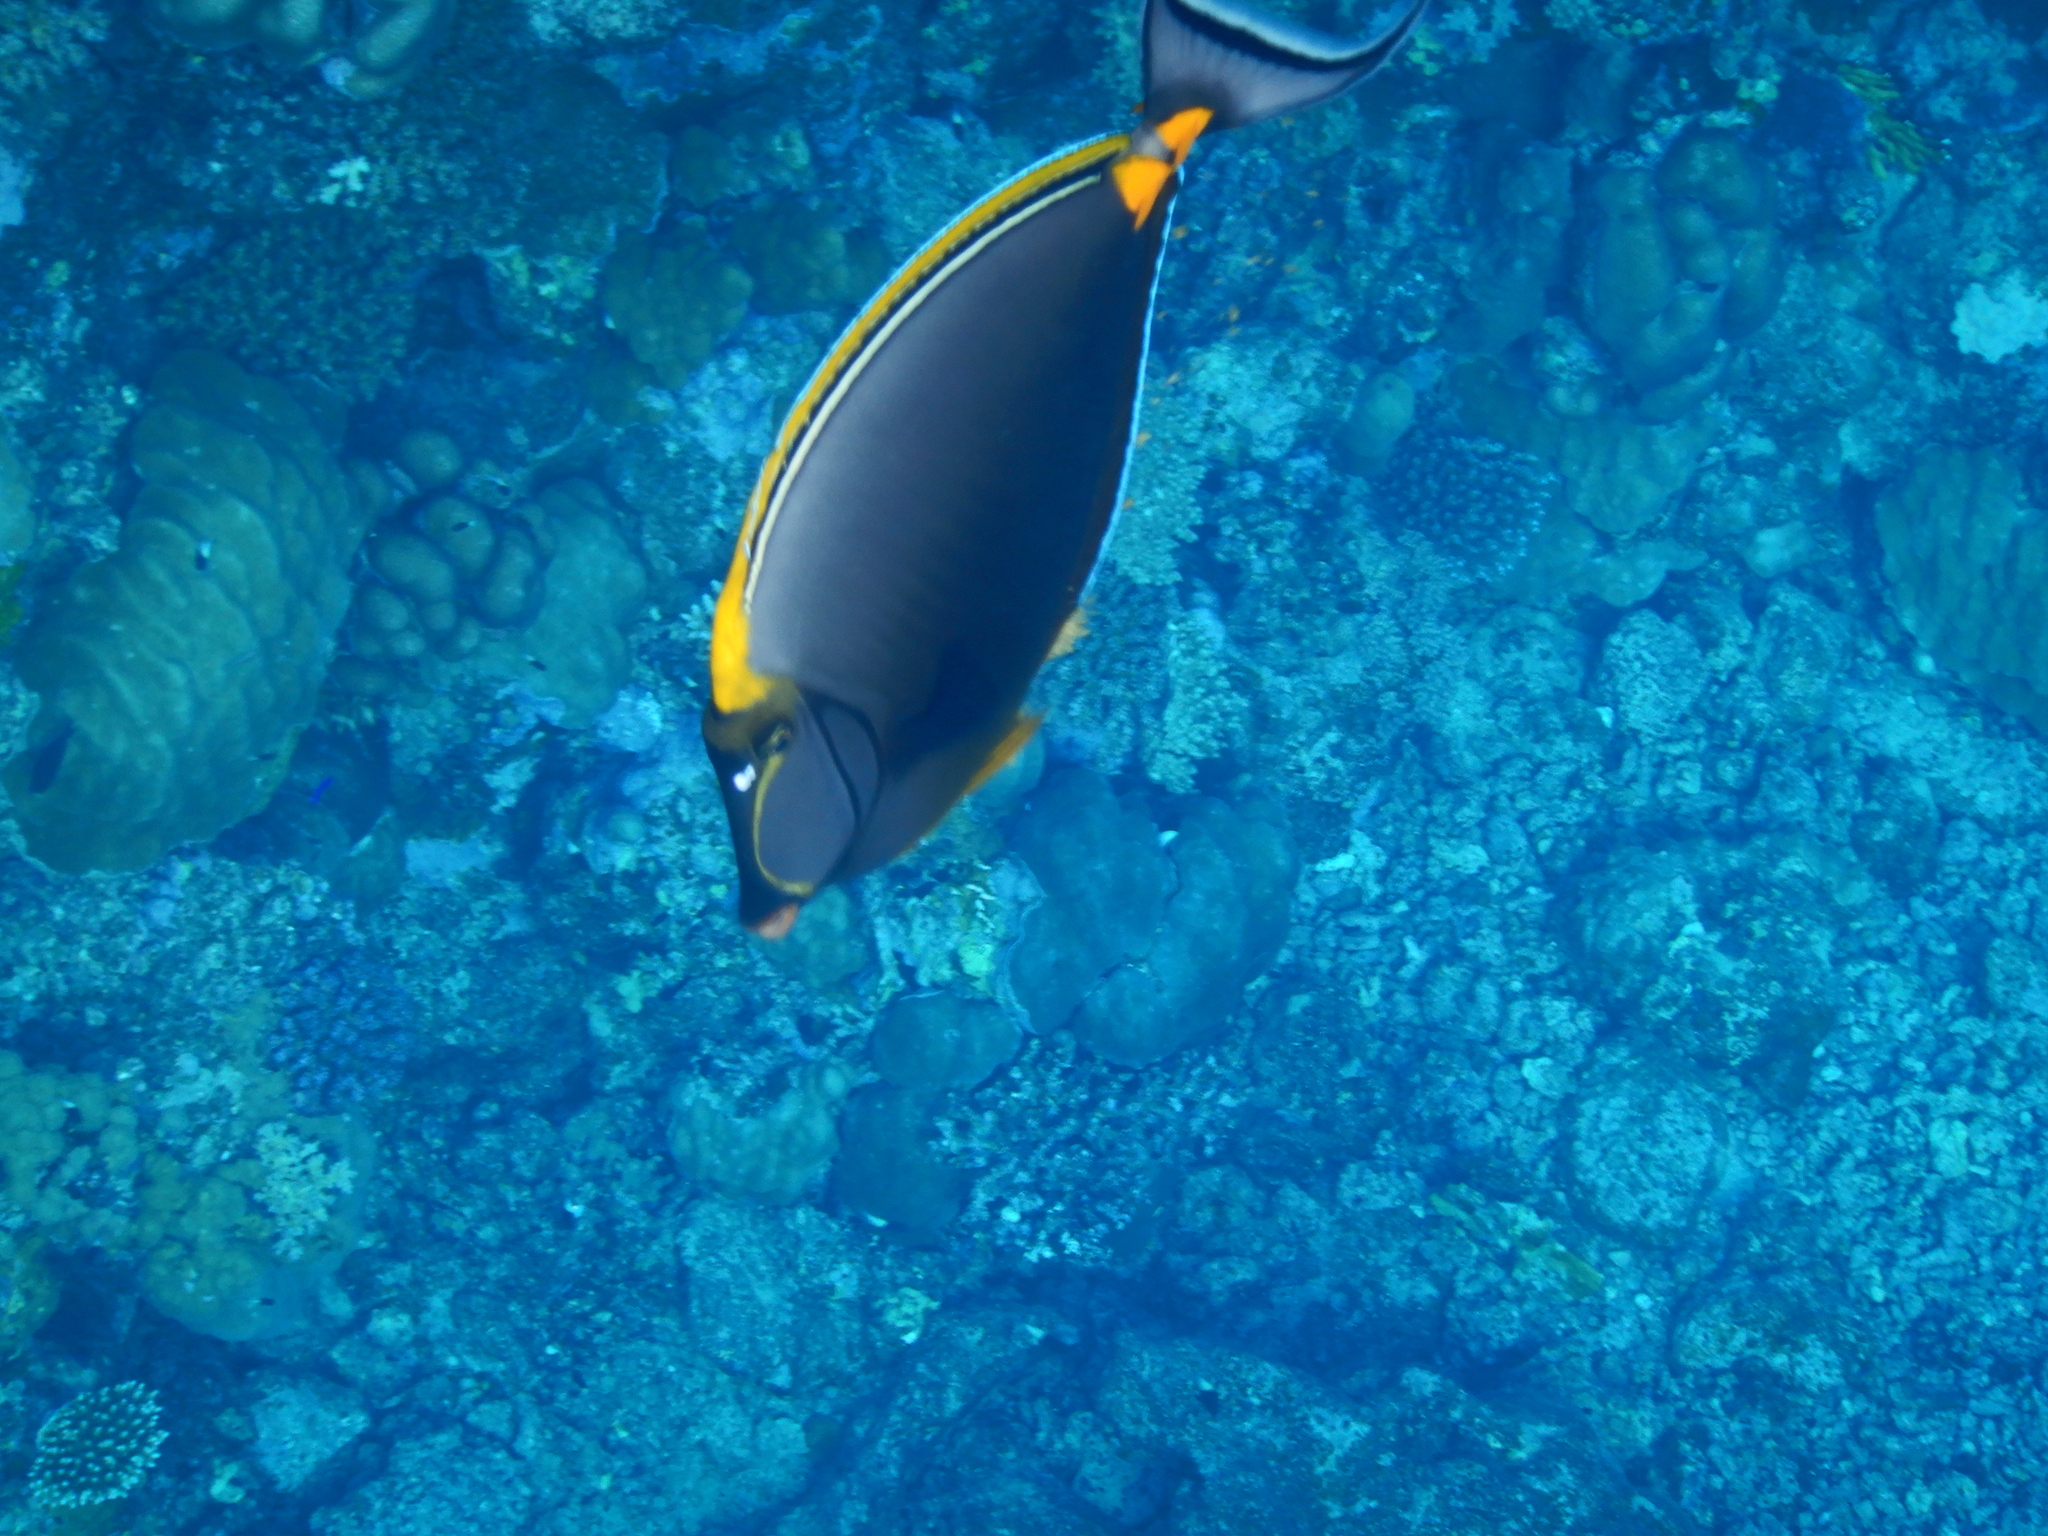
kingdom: Animalia
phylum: Chordata
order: Perciformes
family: Acanthuridae
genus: Naso
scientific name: Naso elegans
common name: Orangespine unicornfish
